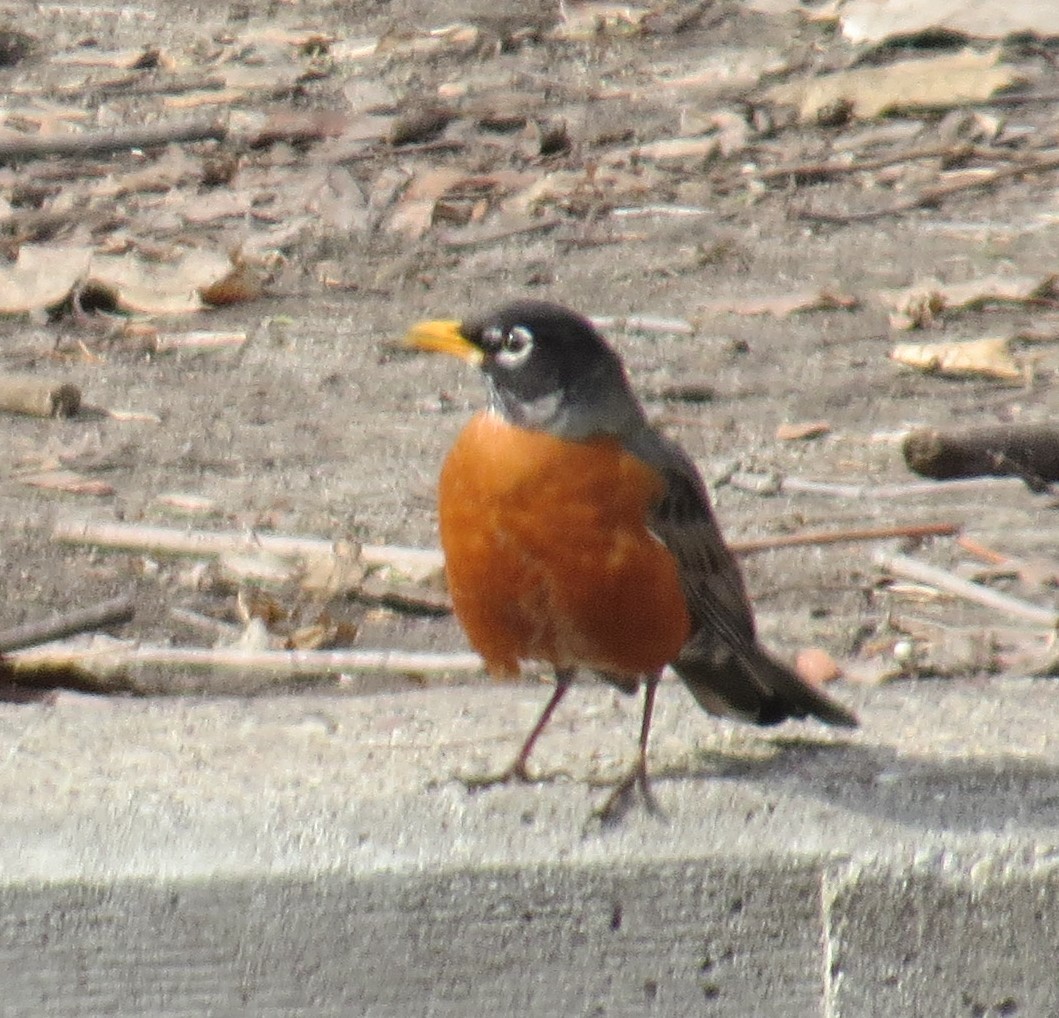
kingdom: Animalia
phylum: Chordata
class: Aves
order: Passeriformes
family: Turdidae
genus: Turdus
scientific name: Turdus migratorius
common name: American robin
